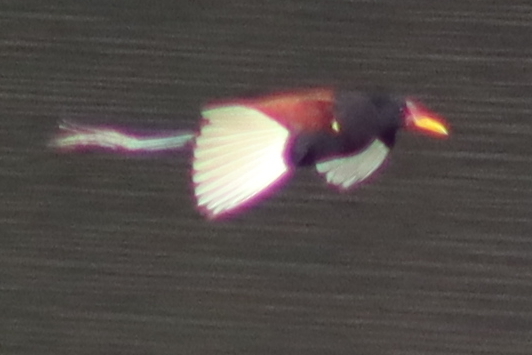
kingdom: Animalia
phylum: Chordata
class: Aves
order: Charadriiformes
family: Jacanidae
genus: Jacana
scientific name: Jacana jacana
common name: Wattled jacana
